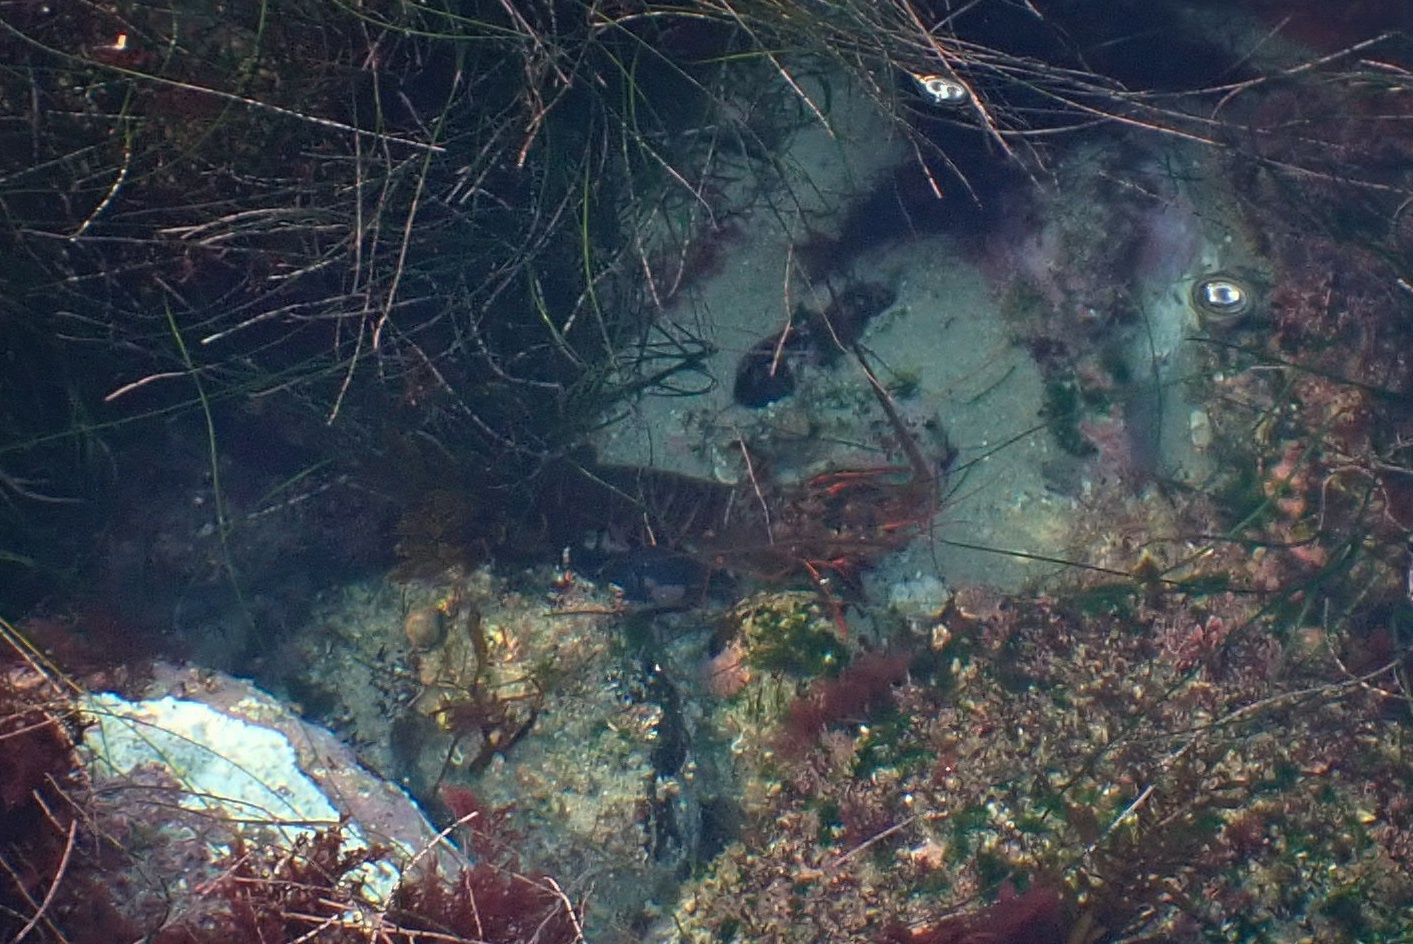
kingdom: Animalia
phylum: Arthropoda
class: Malacostraca
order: Decapoda
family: Palinuridae
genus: Panulirus
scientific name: Panulirus interruptus
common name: California spiny lobster
